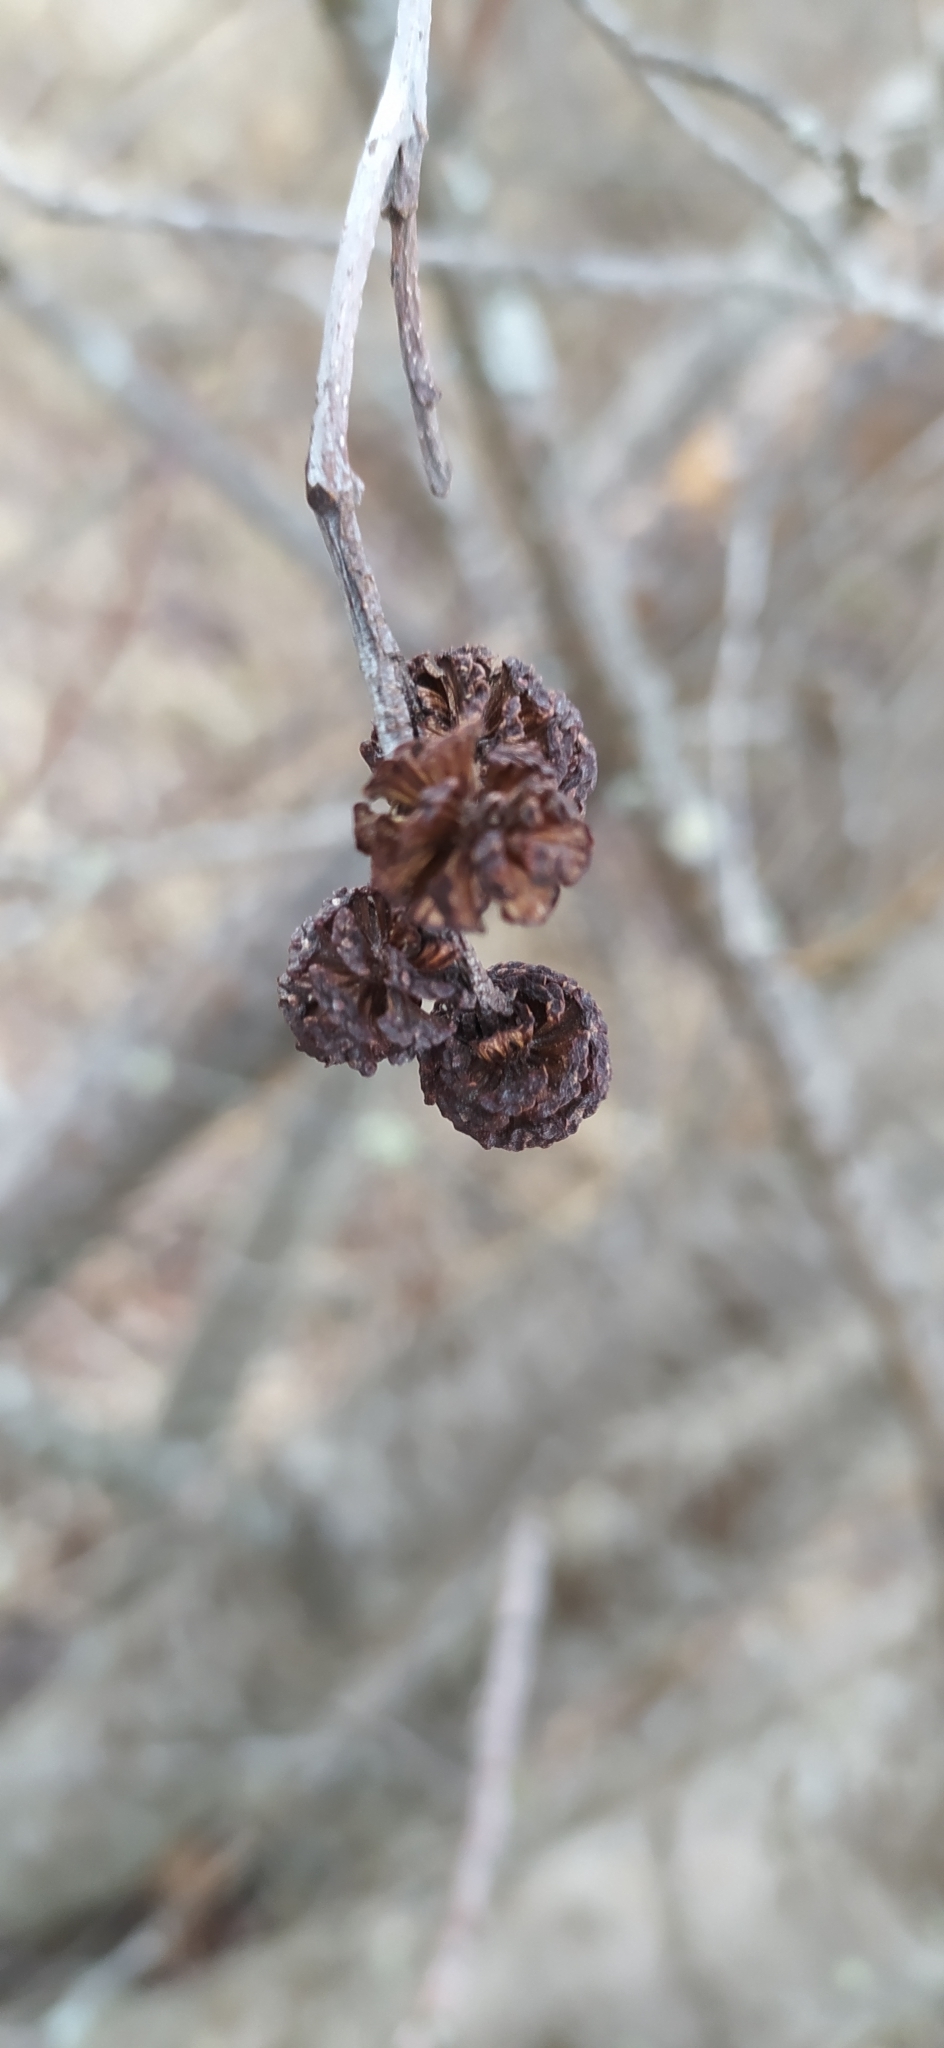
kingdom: Plantae
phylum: Tracheophyta
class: Magnoliopsida
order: Fagales
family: Betulaceae
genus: Alnus
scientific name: Alnus incana
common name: Grey alder
